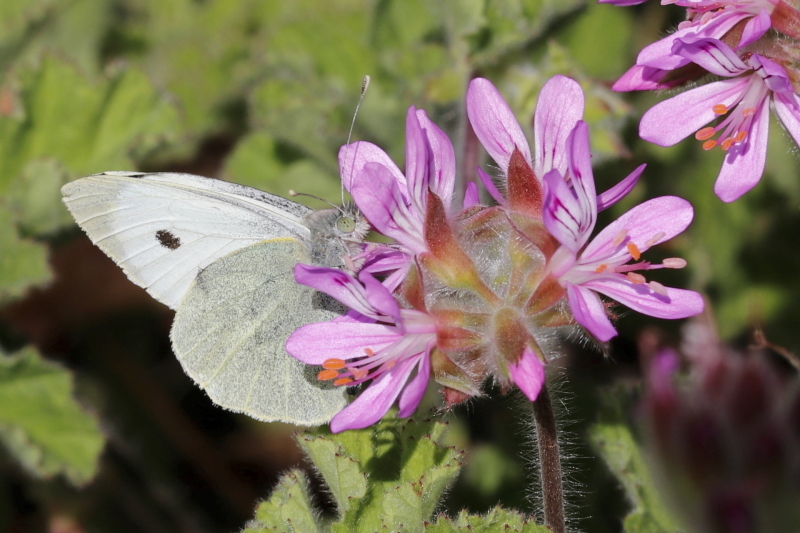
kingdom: Animalia
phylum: Arthropoda
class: Insecta
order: Lepidoptera
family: Pieridae
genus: Pieris
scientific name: Pieris brassicae
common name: Large white
